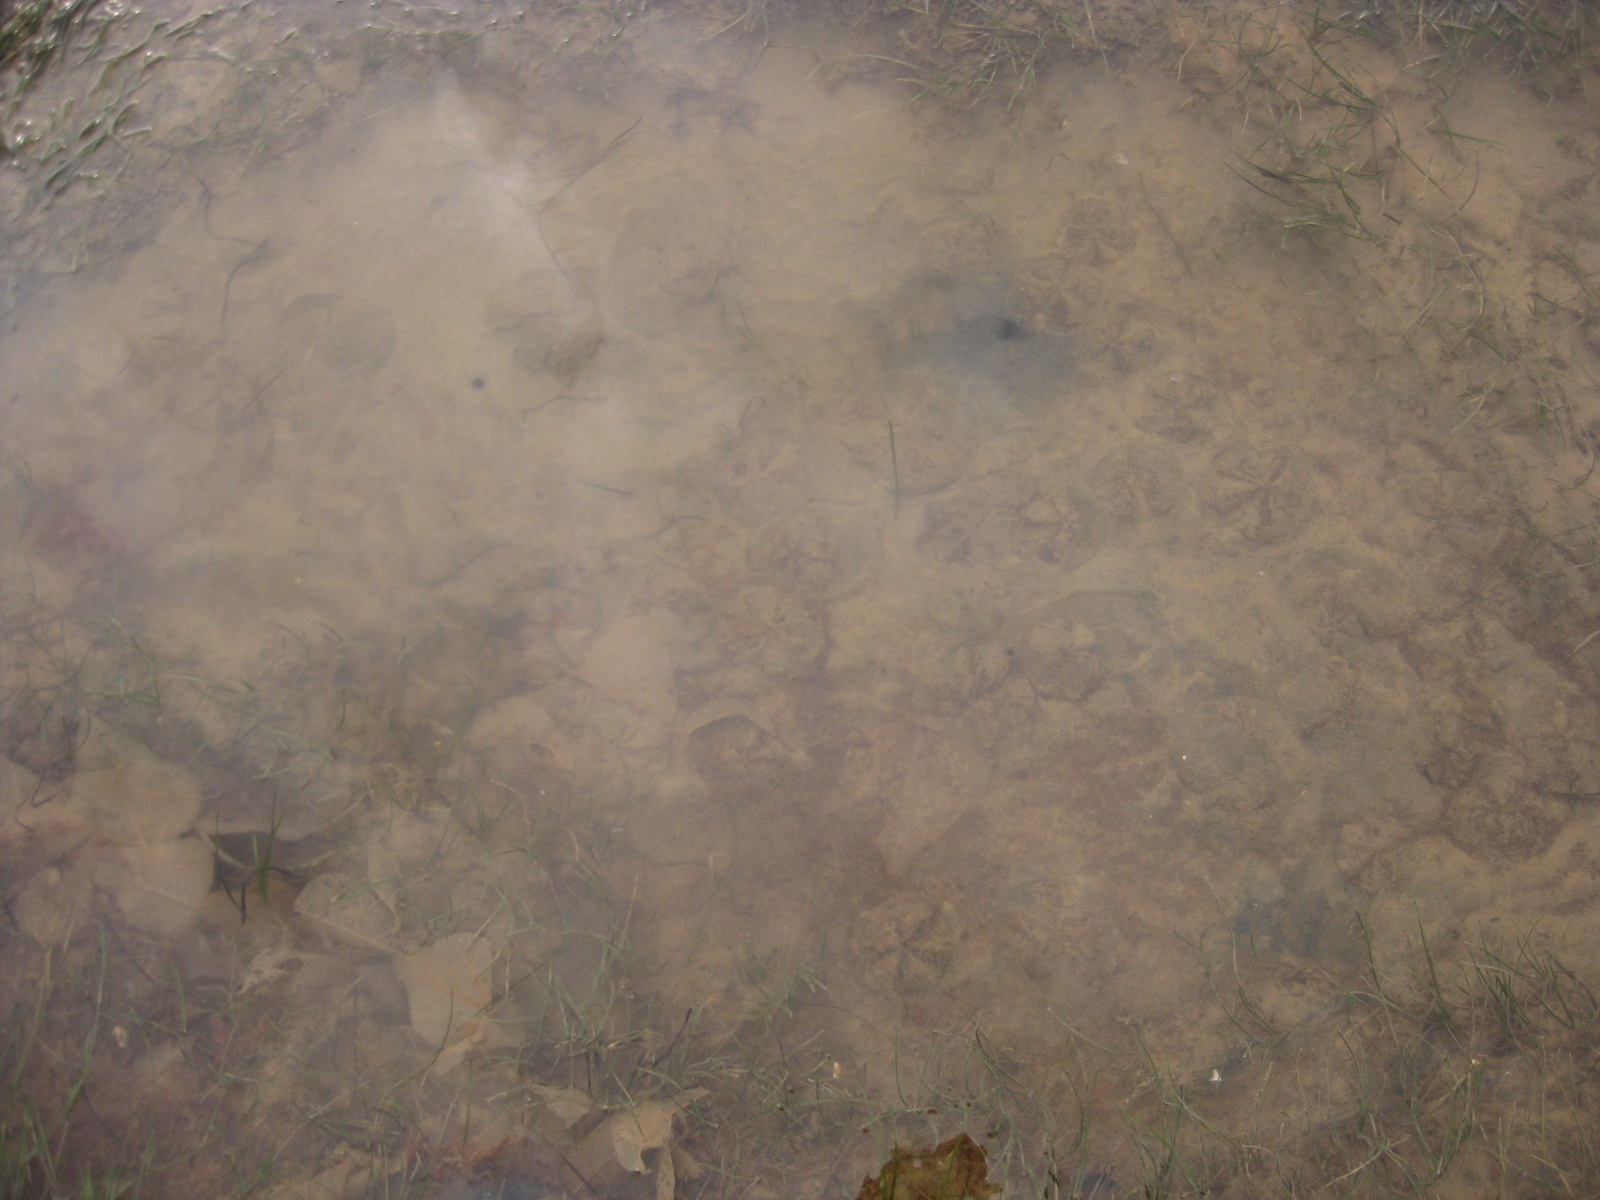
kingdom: Animalia
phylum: Echinodermata
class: Echinoidea
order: Clypeasteroida
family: Clypeasteridae
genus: Fellaster
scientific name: Fellaster zelandiae
